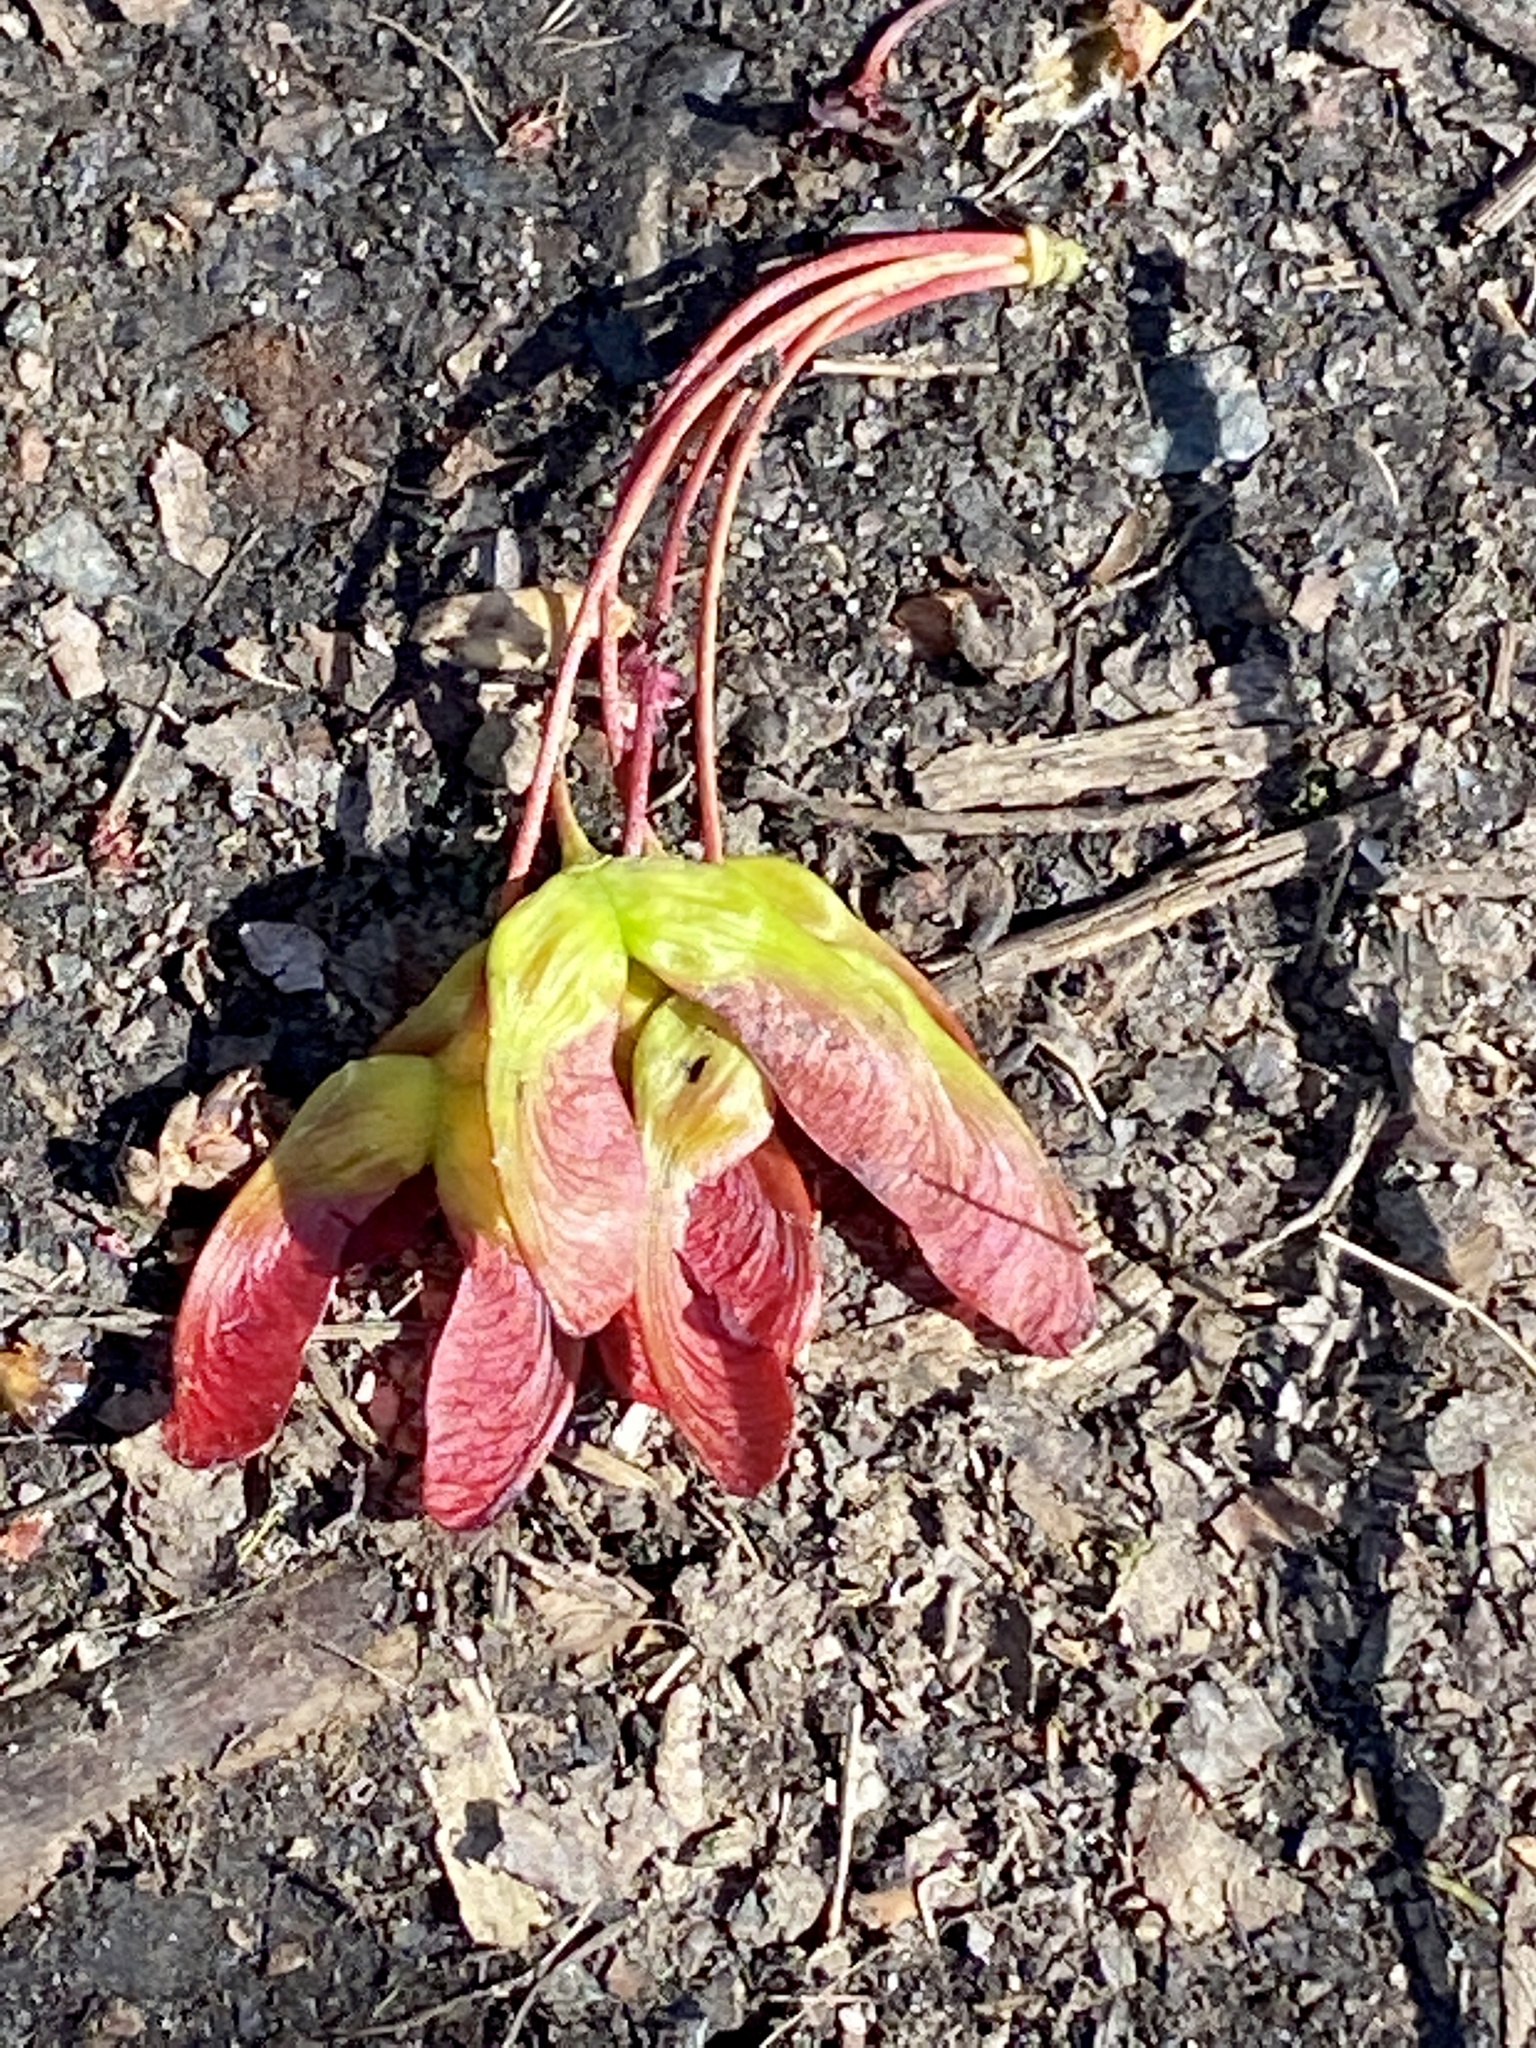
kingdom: Plantae
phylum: Tracheophyta
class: Magnoliopsida
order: Sapindales
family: Sapindaceae
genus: Acer
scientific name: Acer rubrum
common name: Red maple
